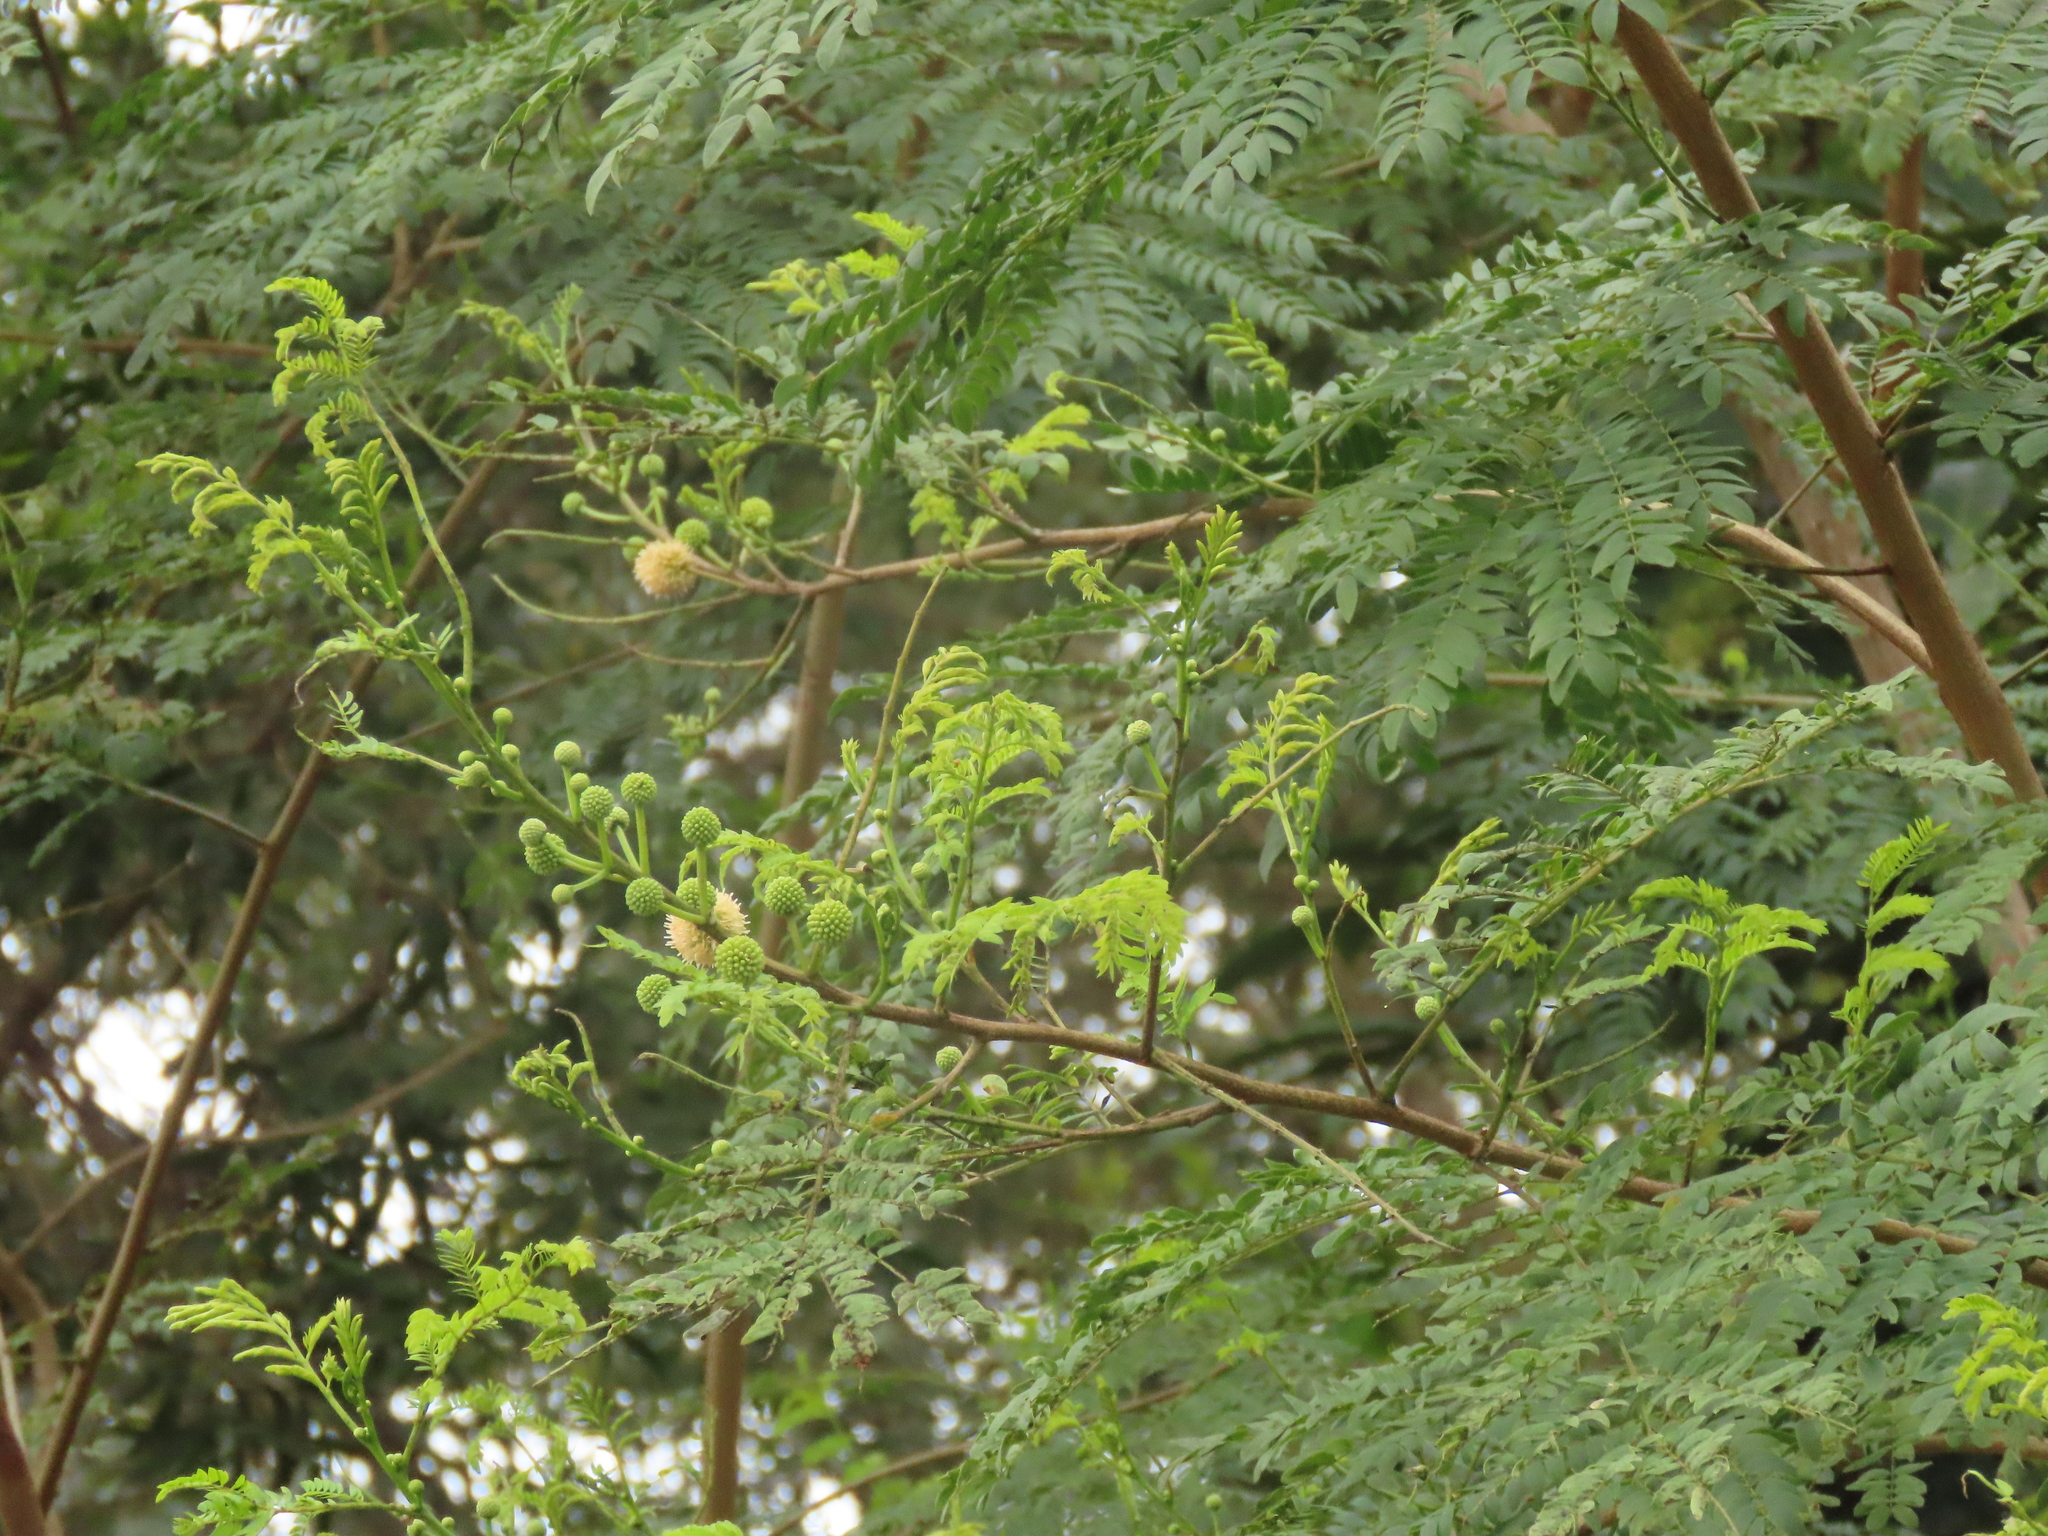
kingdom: Plantae
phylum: Tracheophyta
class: Magnoliopsida
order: Fabales
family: Fabaceae
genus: Leucaena
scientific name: Leucaena leucocephala
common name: White leadtree
